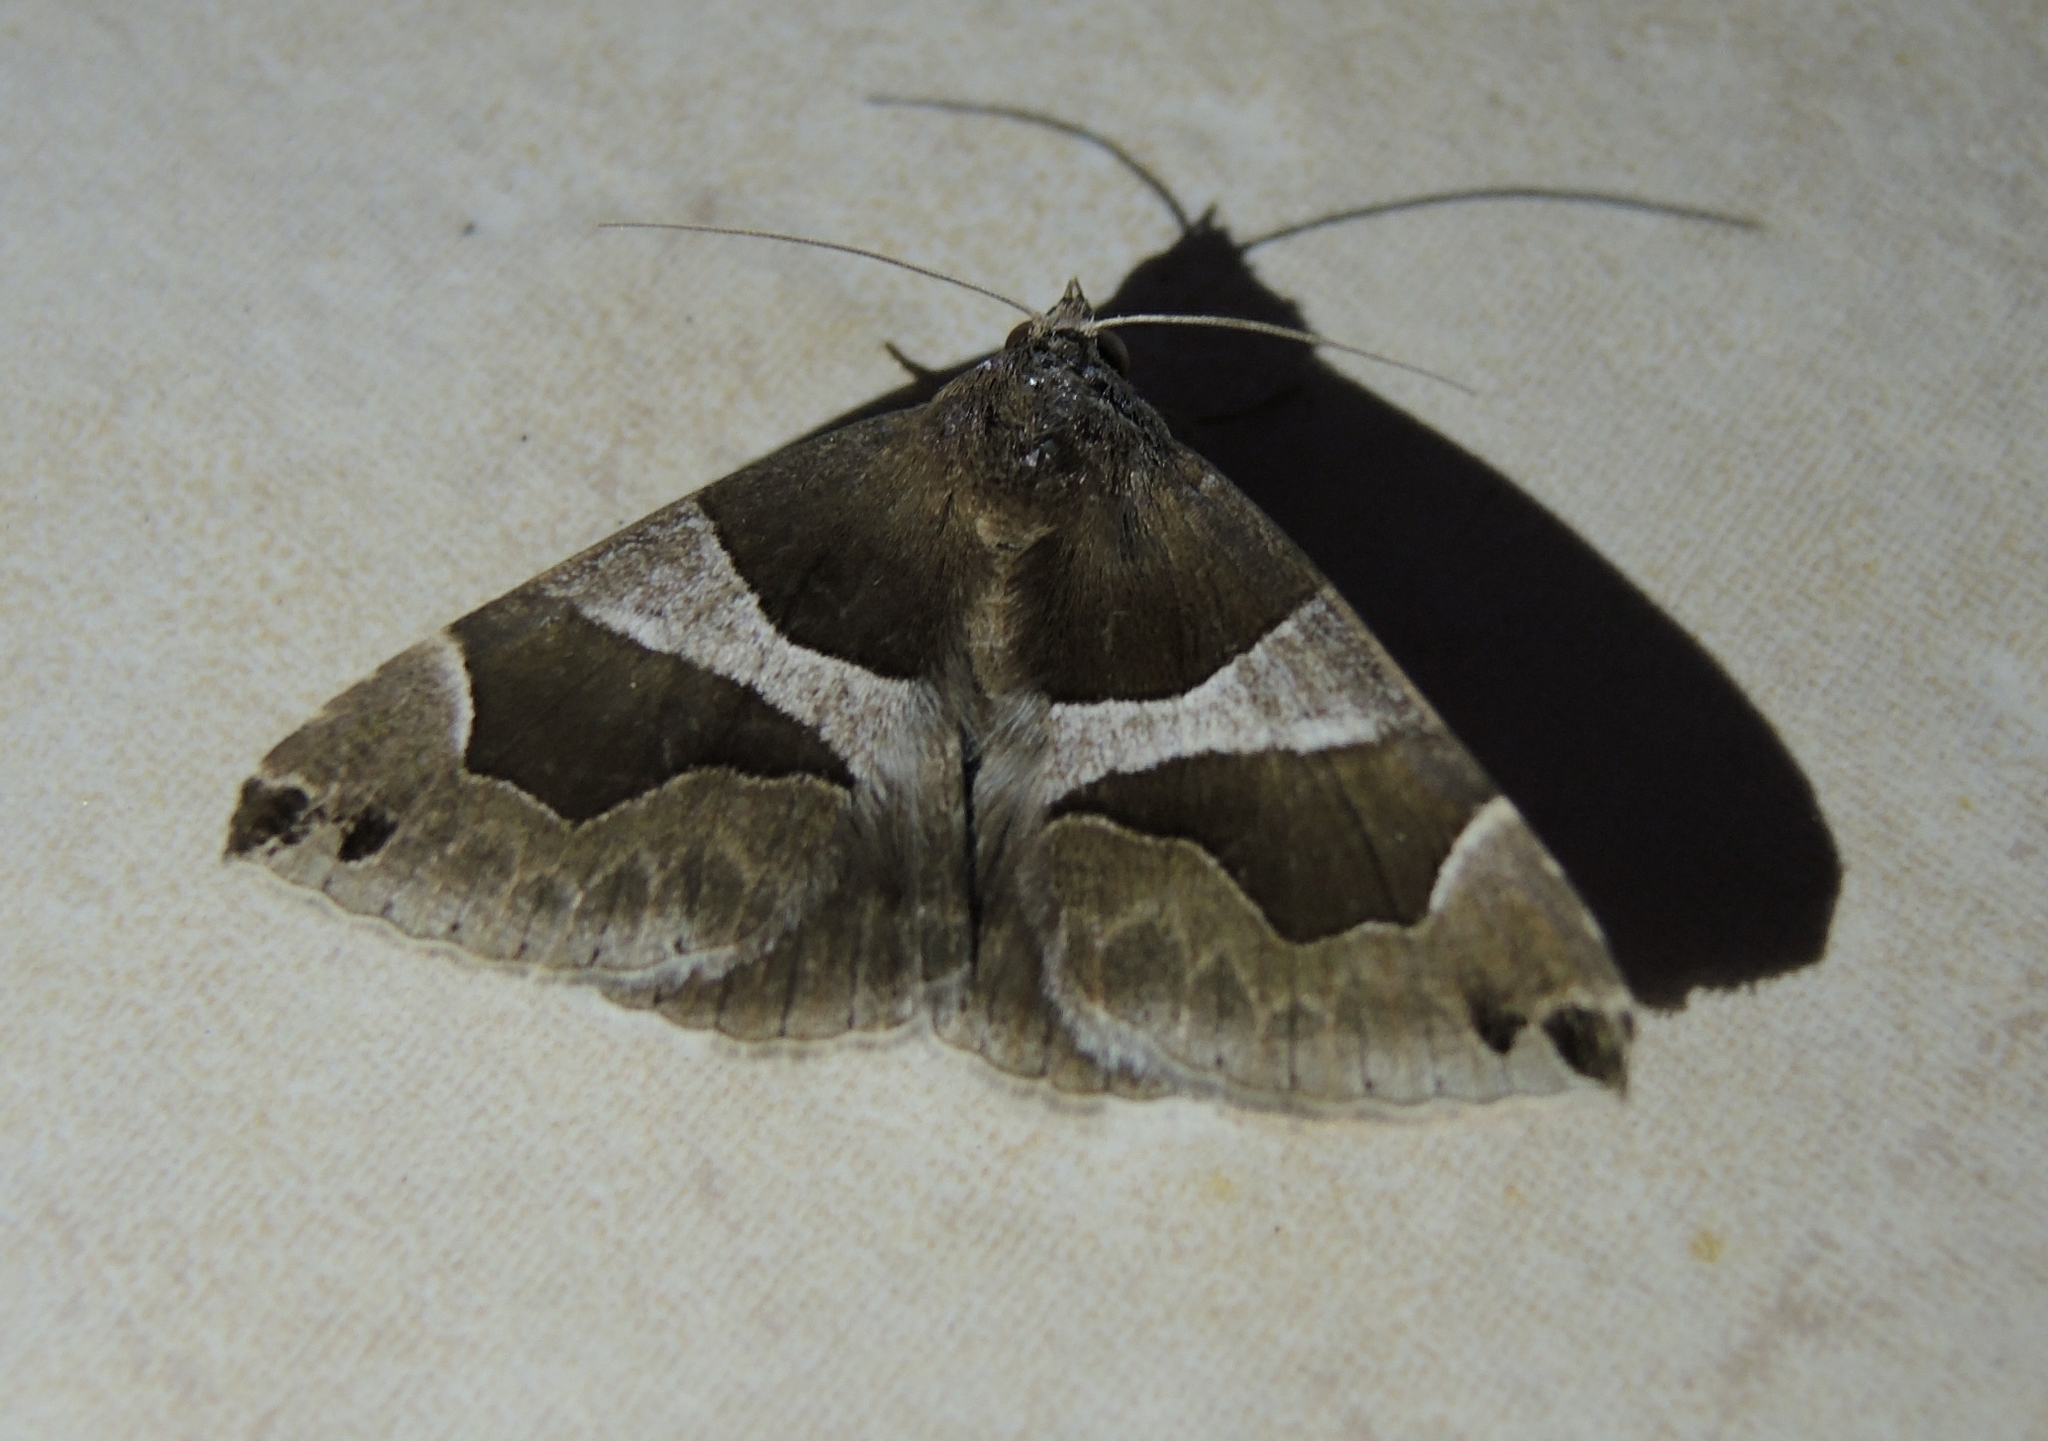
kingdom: Animalia
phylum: Arthropoda
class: Insecta
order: Lepidoptera
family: Erebidae
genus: Dysgonia
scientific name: Dysgonia algira
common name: Passenger
